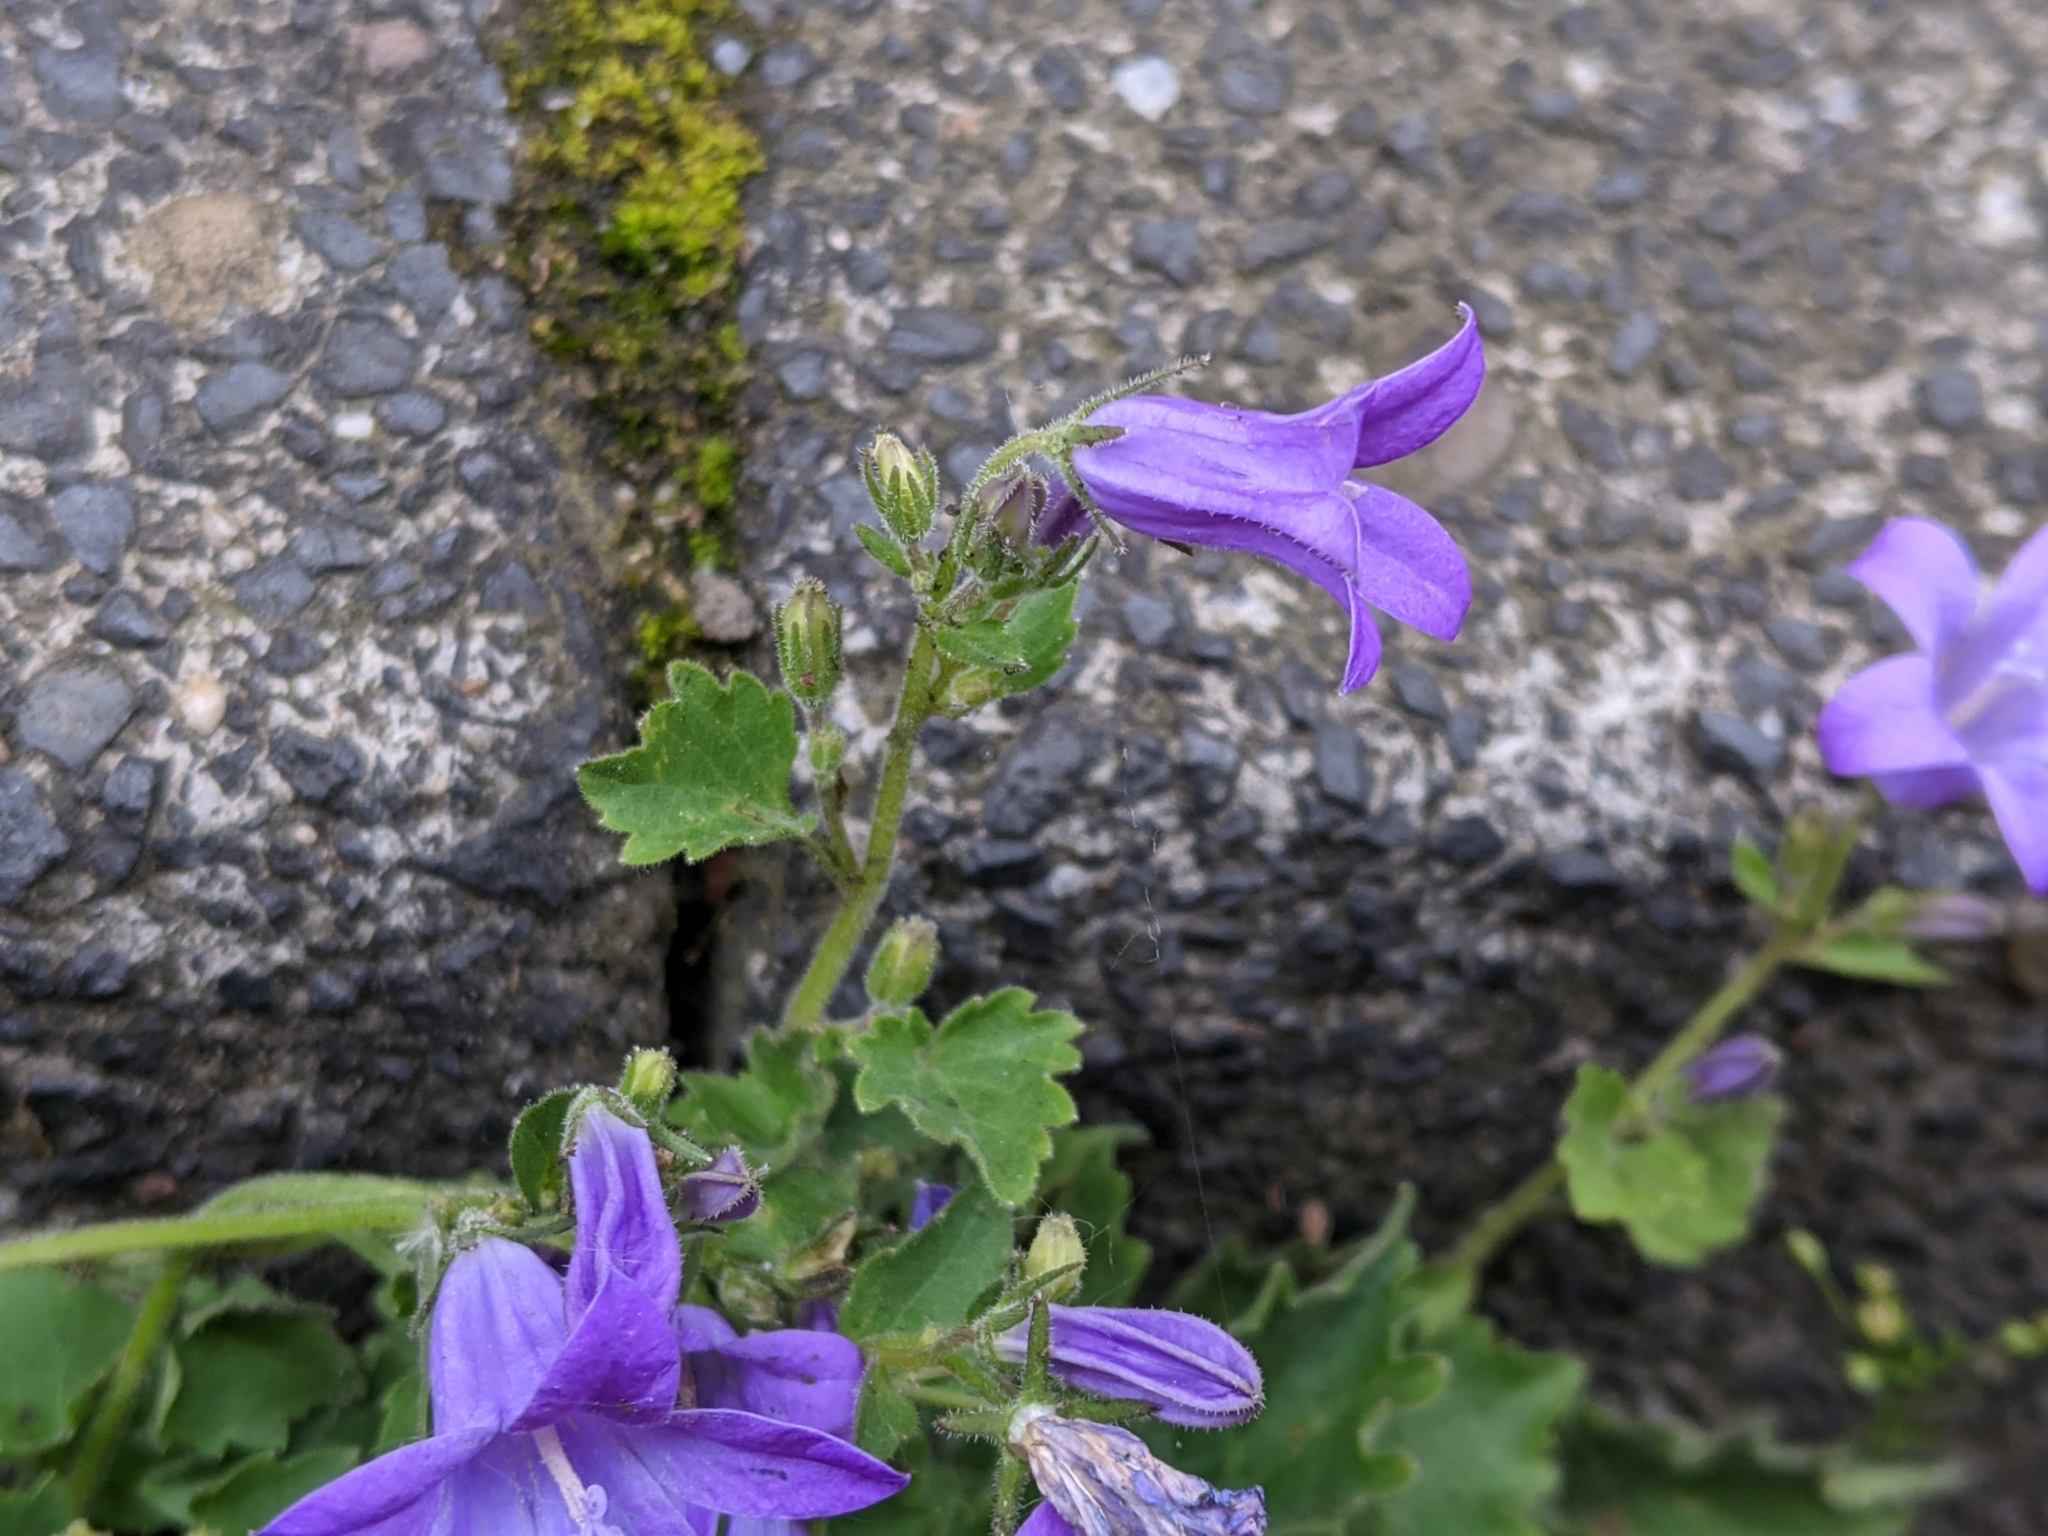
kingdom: Plantae
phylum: Tracheophyta
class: Magnoliopsida
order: Asterales
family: Campanulaceae
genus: Campanula
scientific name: Campanula poscharskyana
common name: Trailing bellflower
